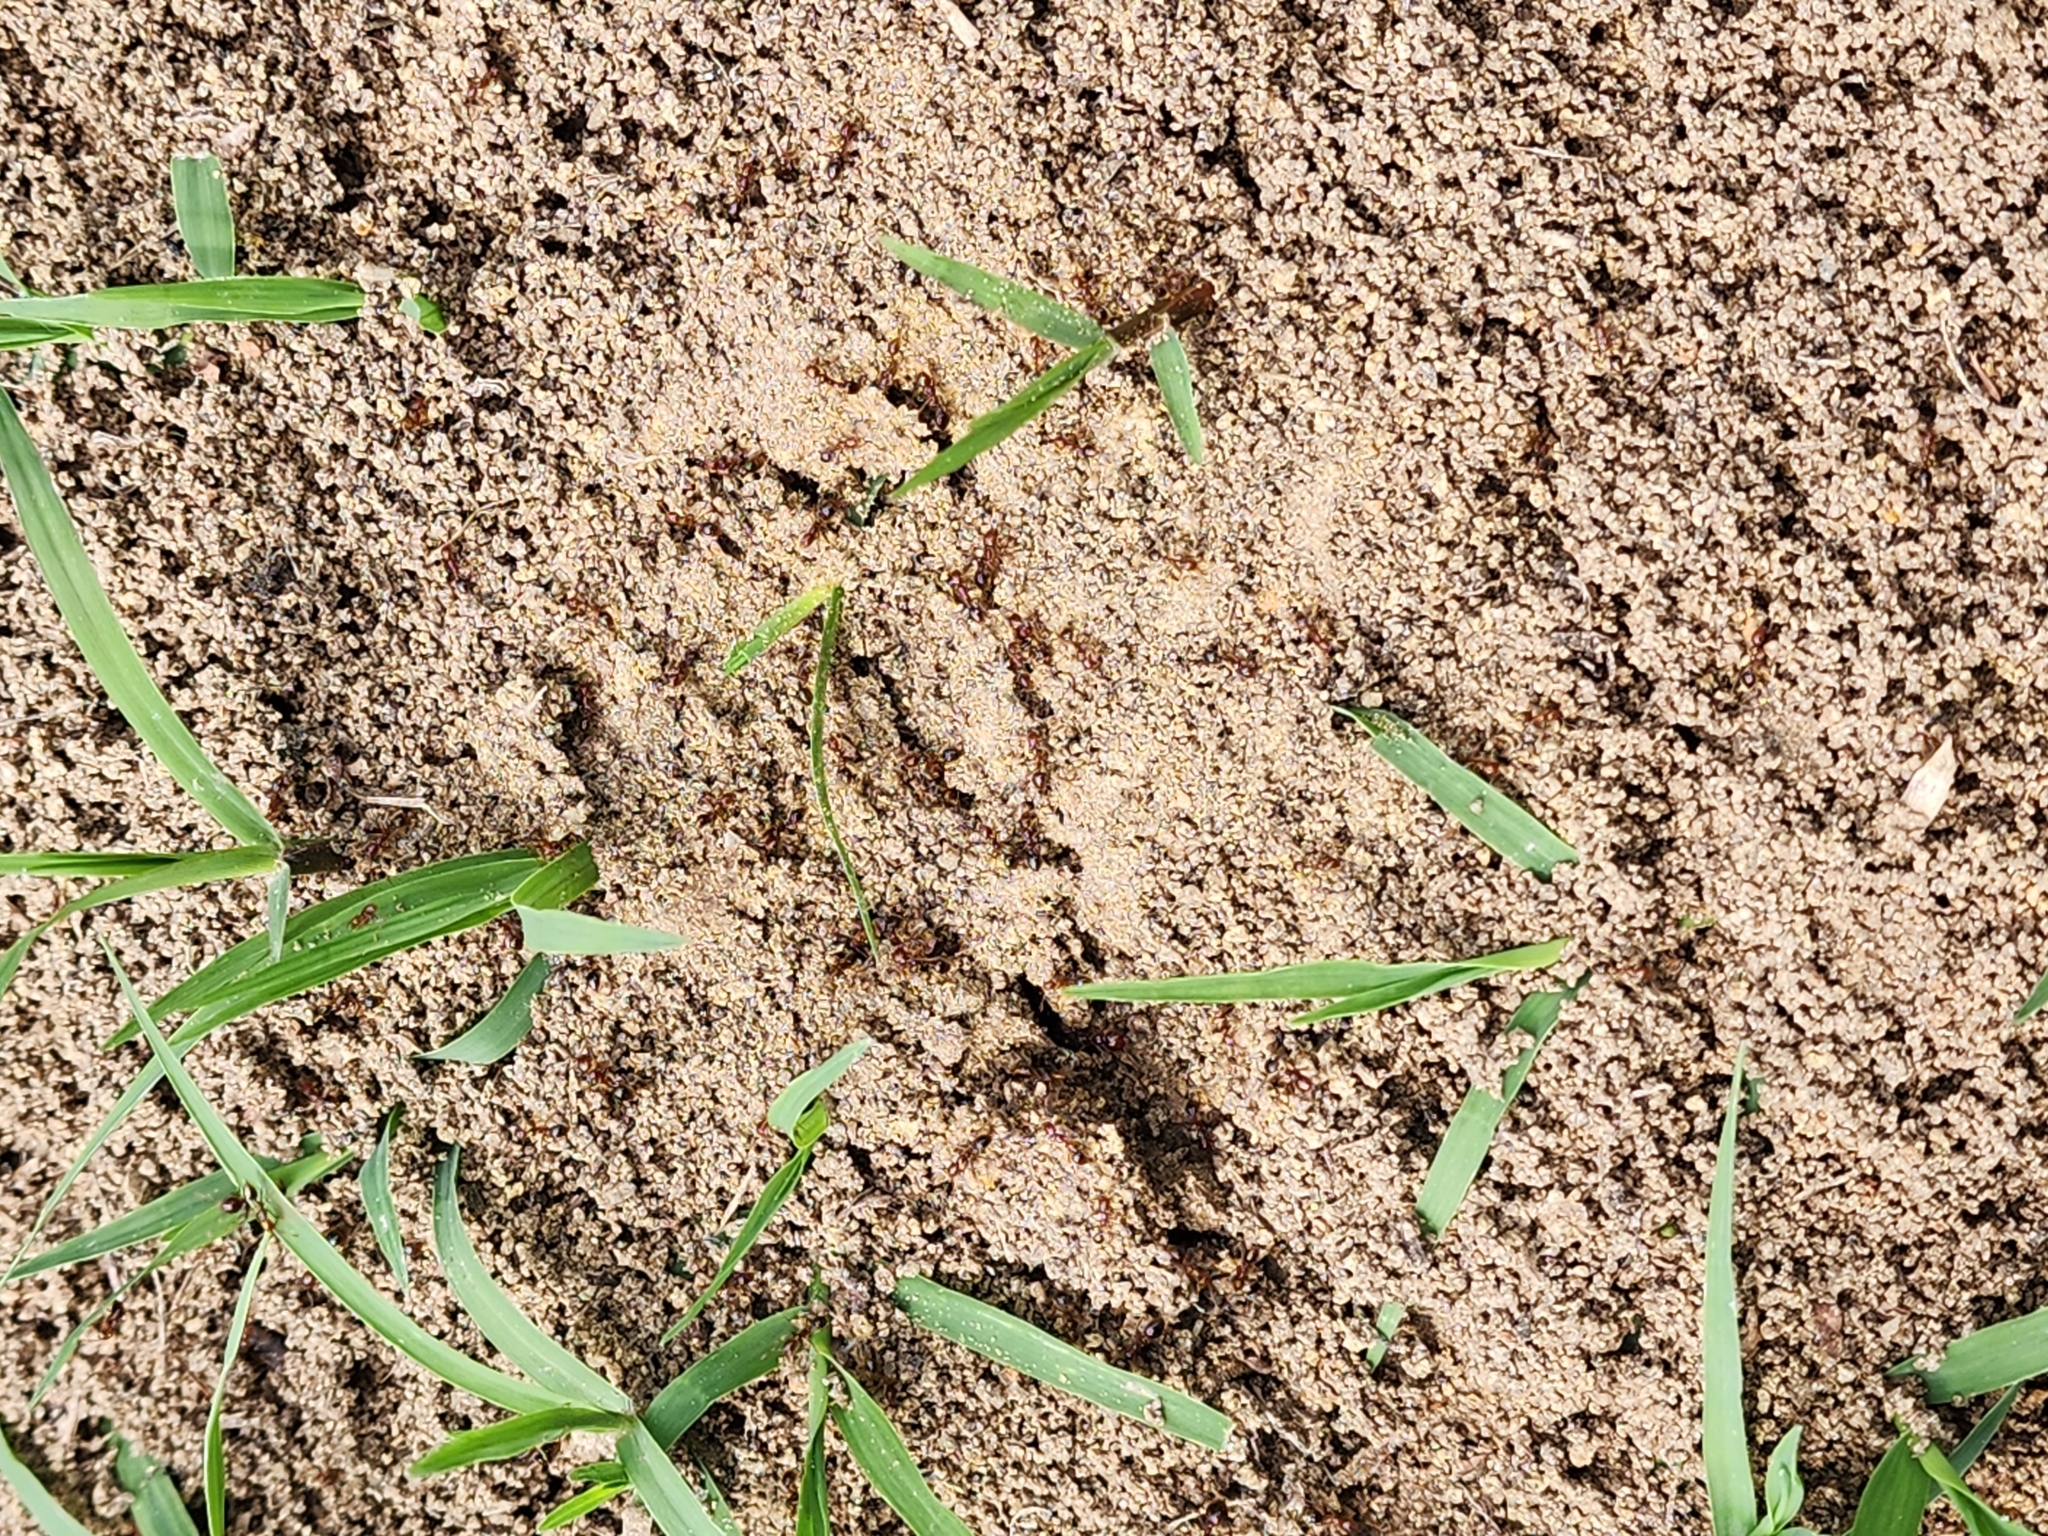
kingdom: Animalia
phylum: Arthropoda
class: Insecta
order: Hymenoptera
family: Formicidae
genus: Solenopsis
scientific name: Solenopsis invicta
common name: Red imported fire ant
